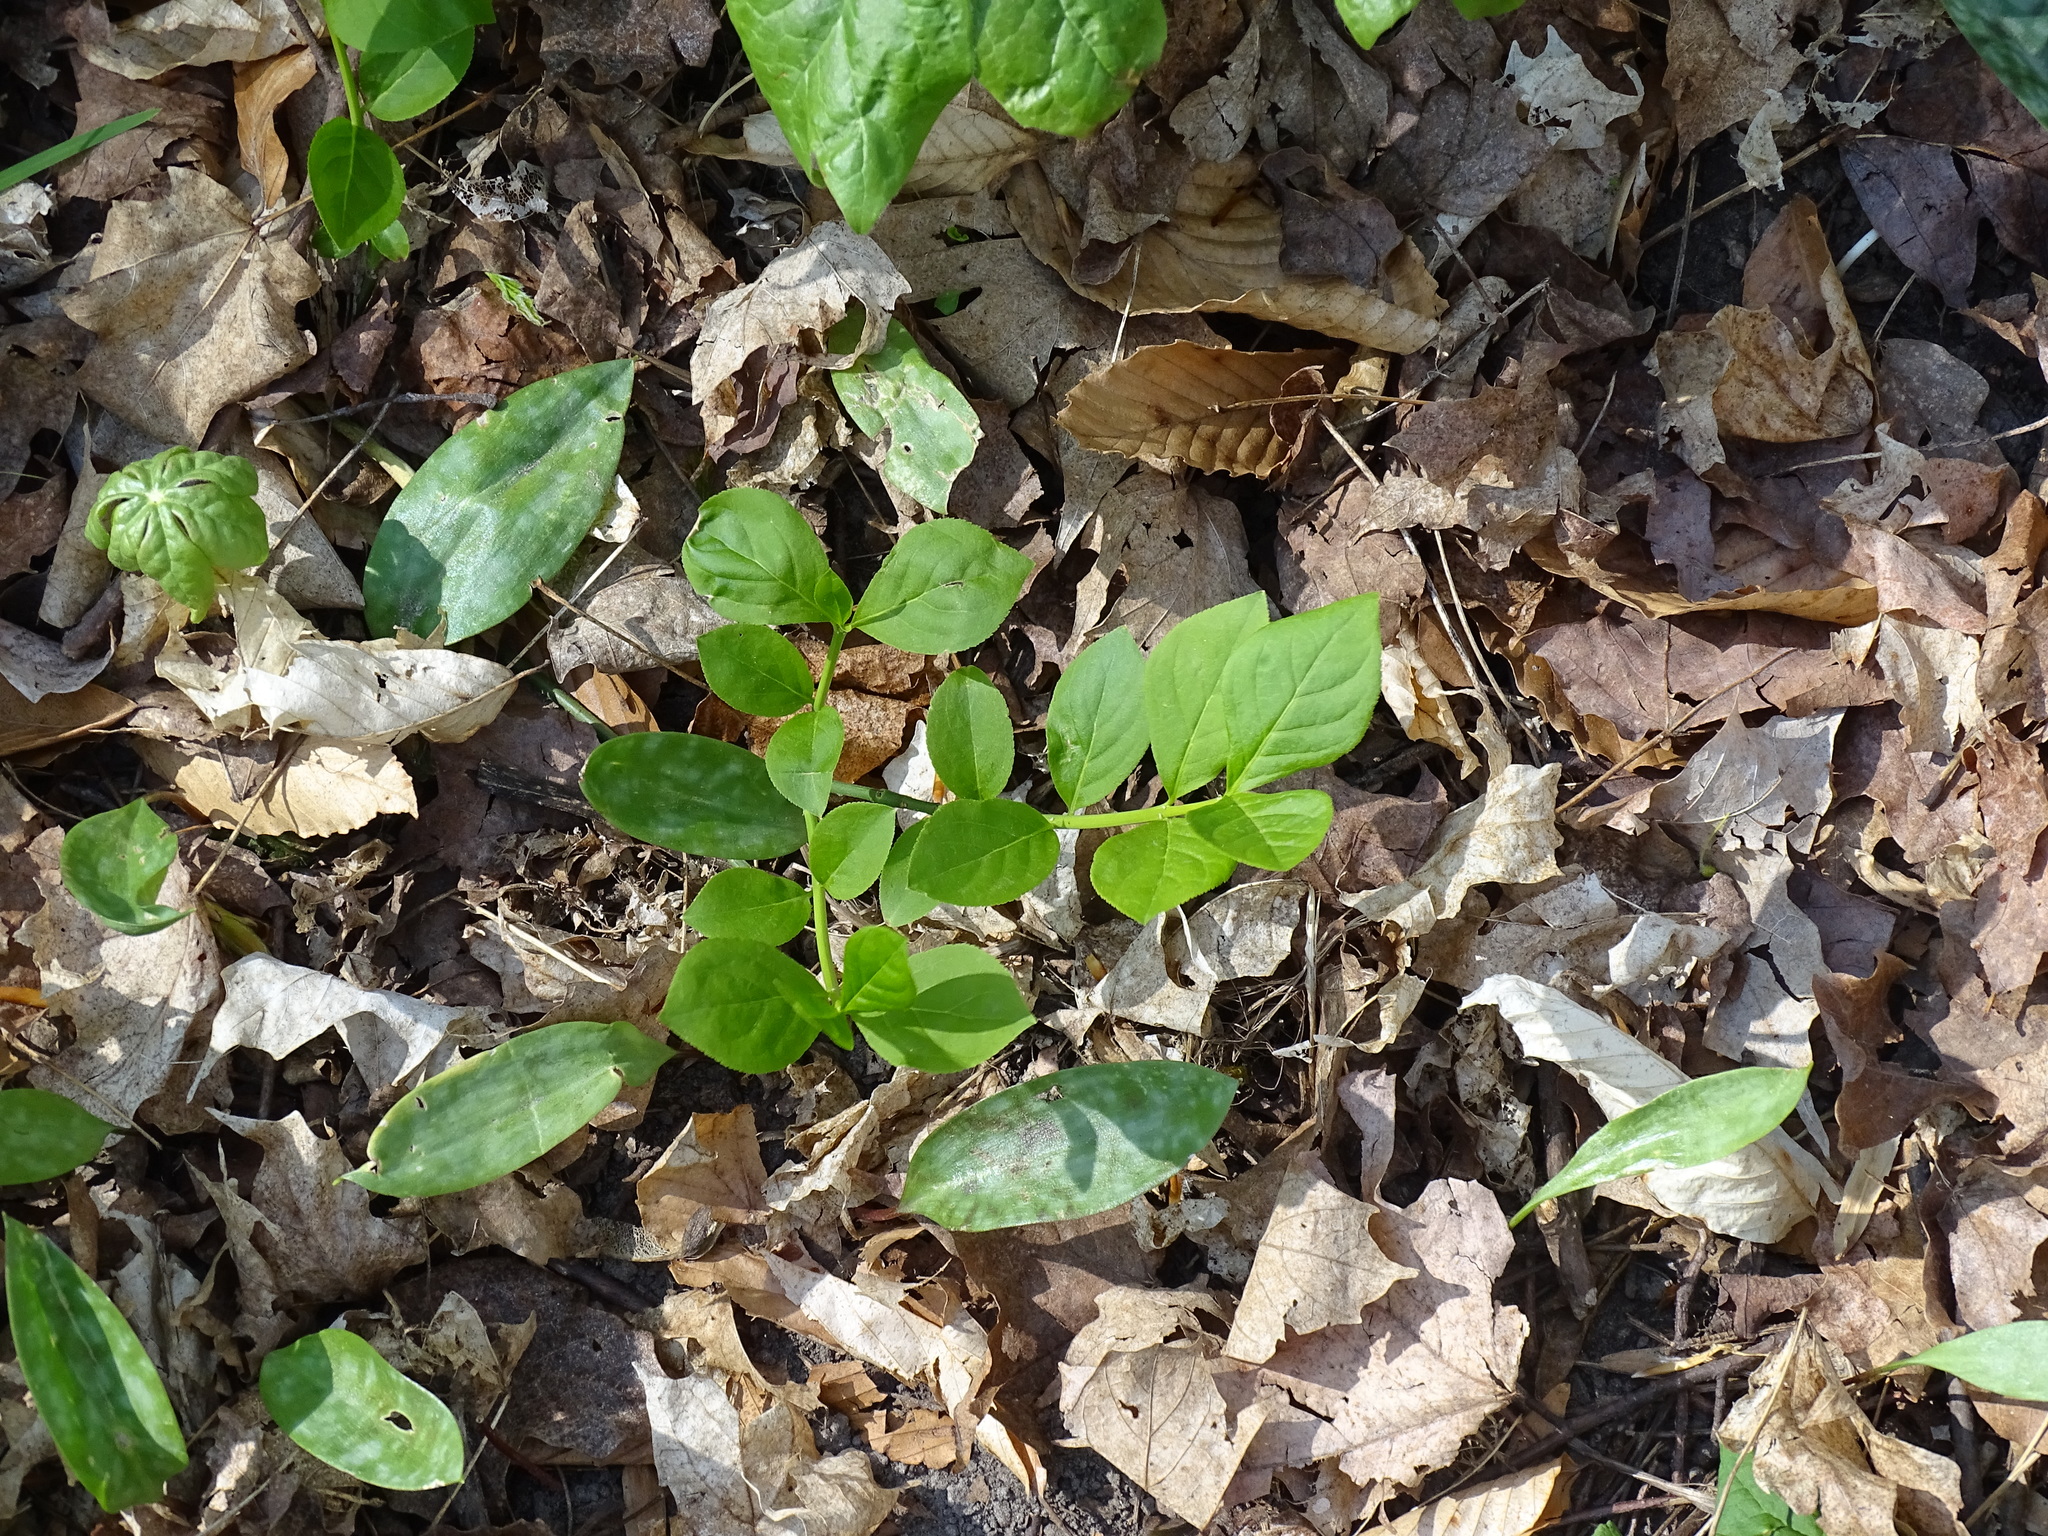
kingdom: Plantae
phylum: Tracheophyta
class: Magnoliopsida
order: Celastrales
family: Celastraceae
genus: Euonymus
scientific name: Euonymus obovatus
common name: Running strawberry-bush
